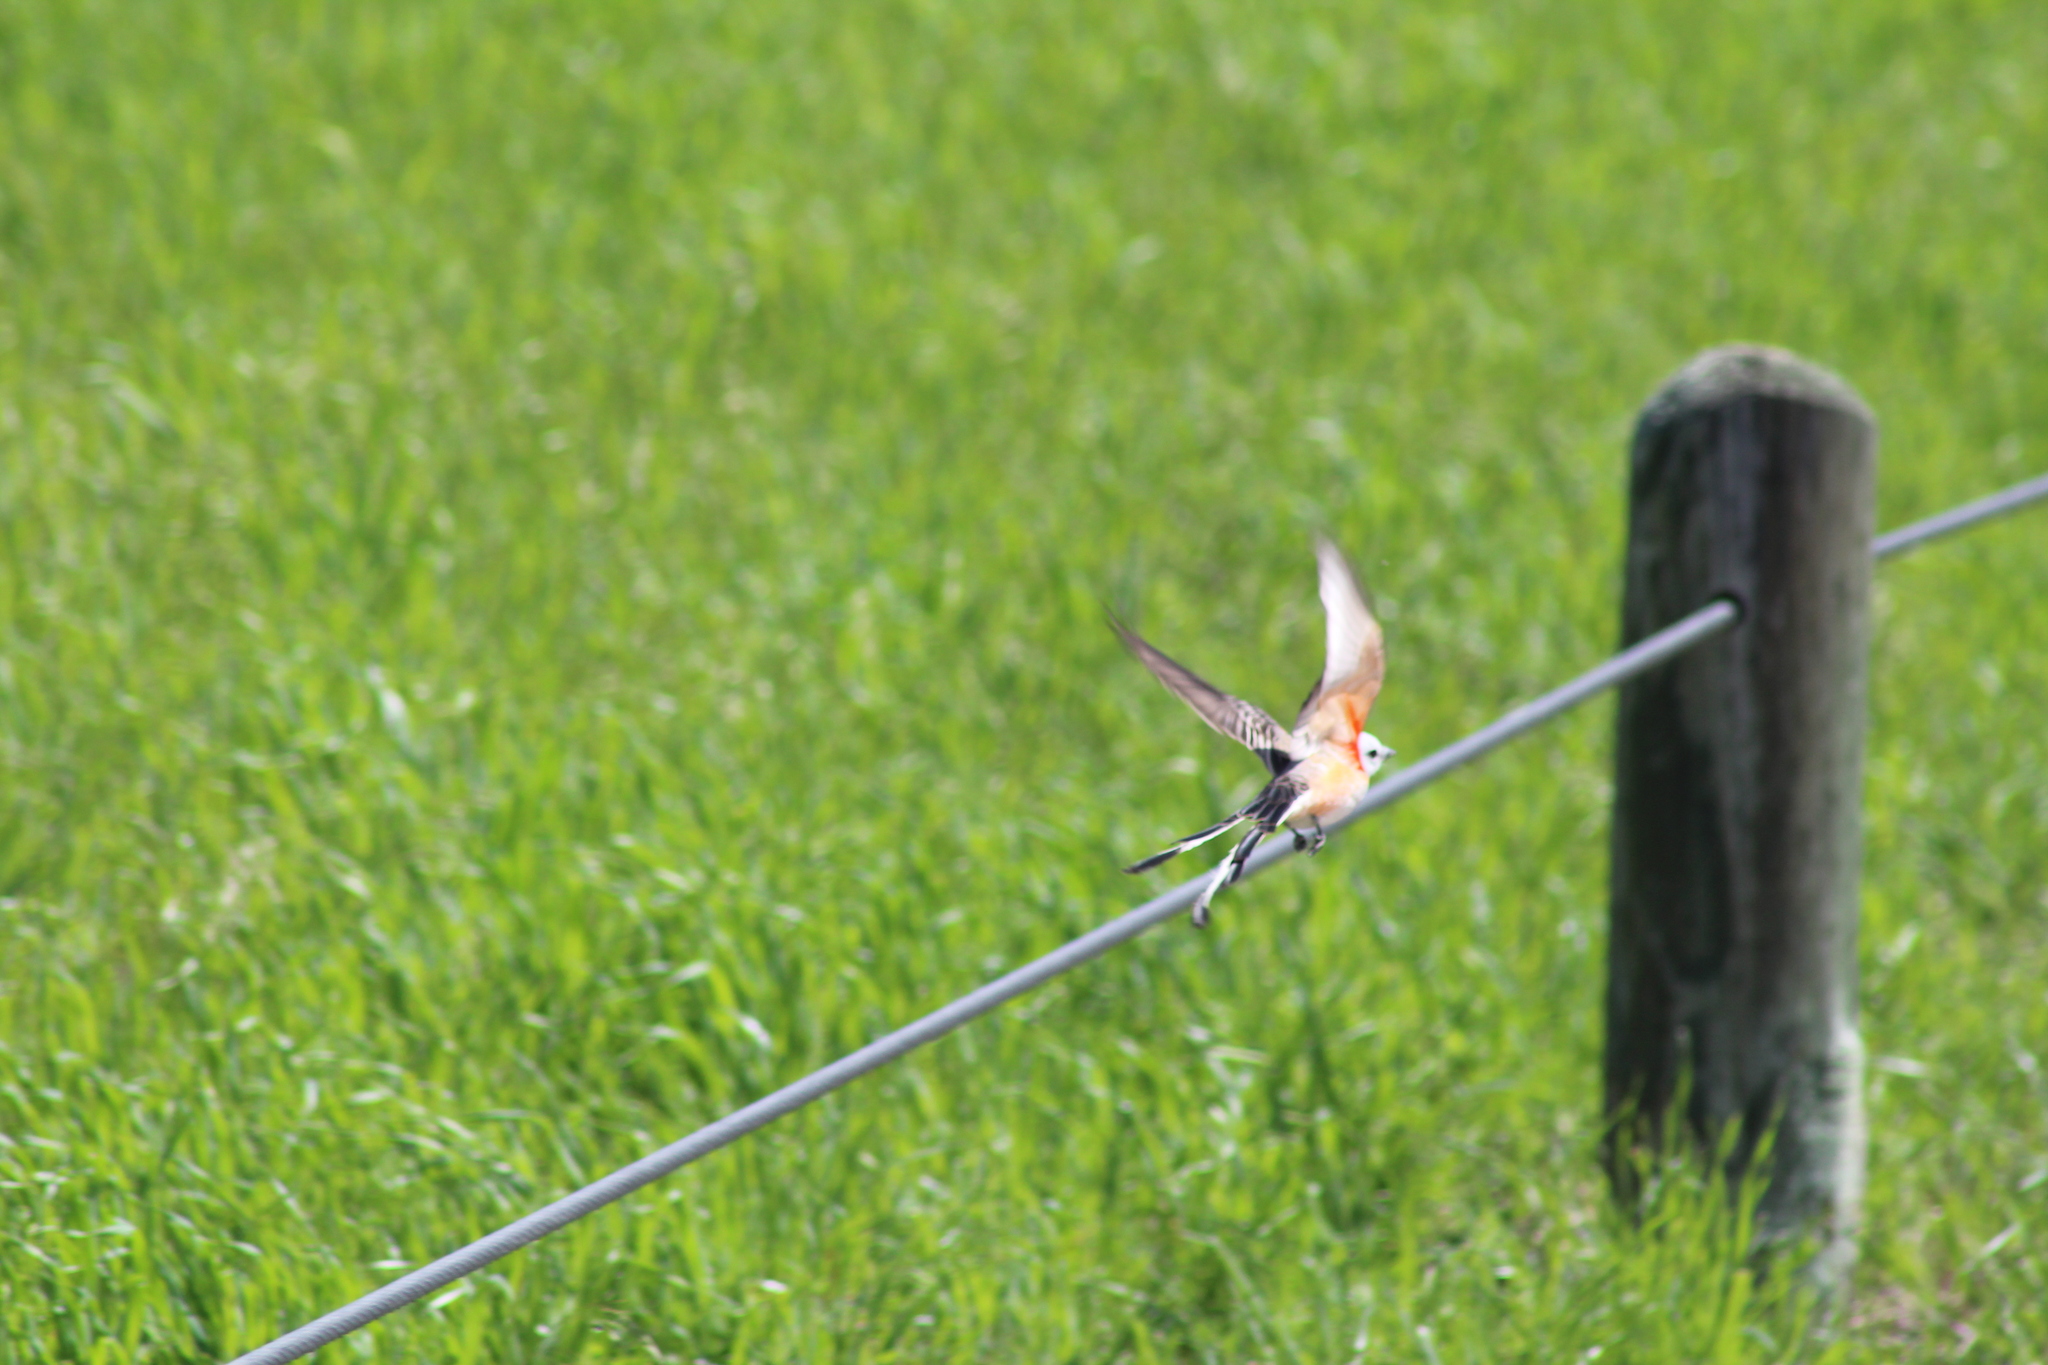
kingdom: Animalia
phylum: Chordata
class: Aves
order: Passeriformes
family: Tyrannidae
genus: Tyrannus
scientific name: Tyrannus forficatus
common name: Scissor-tailed flycatcher
